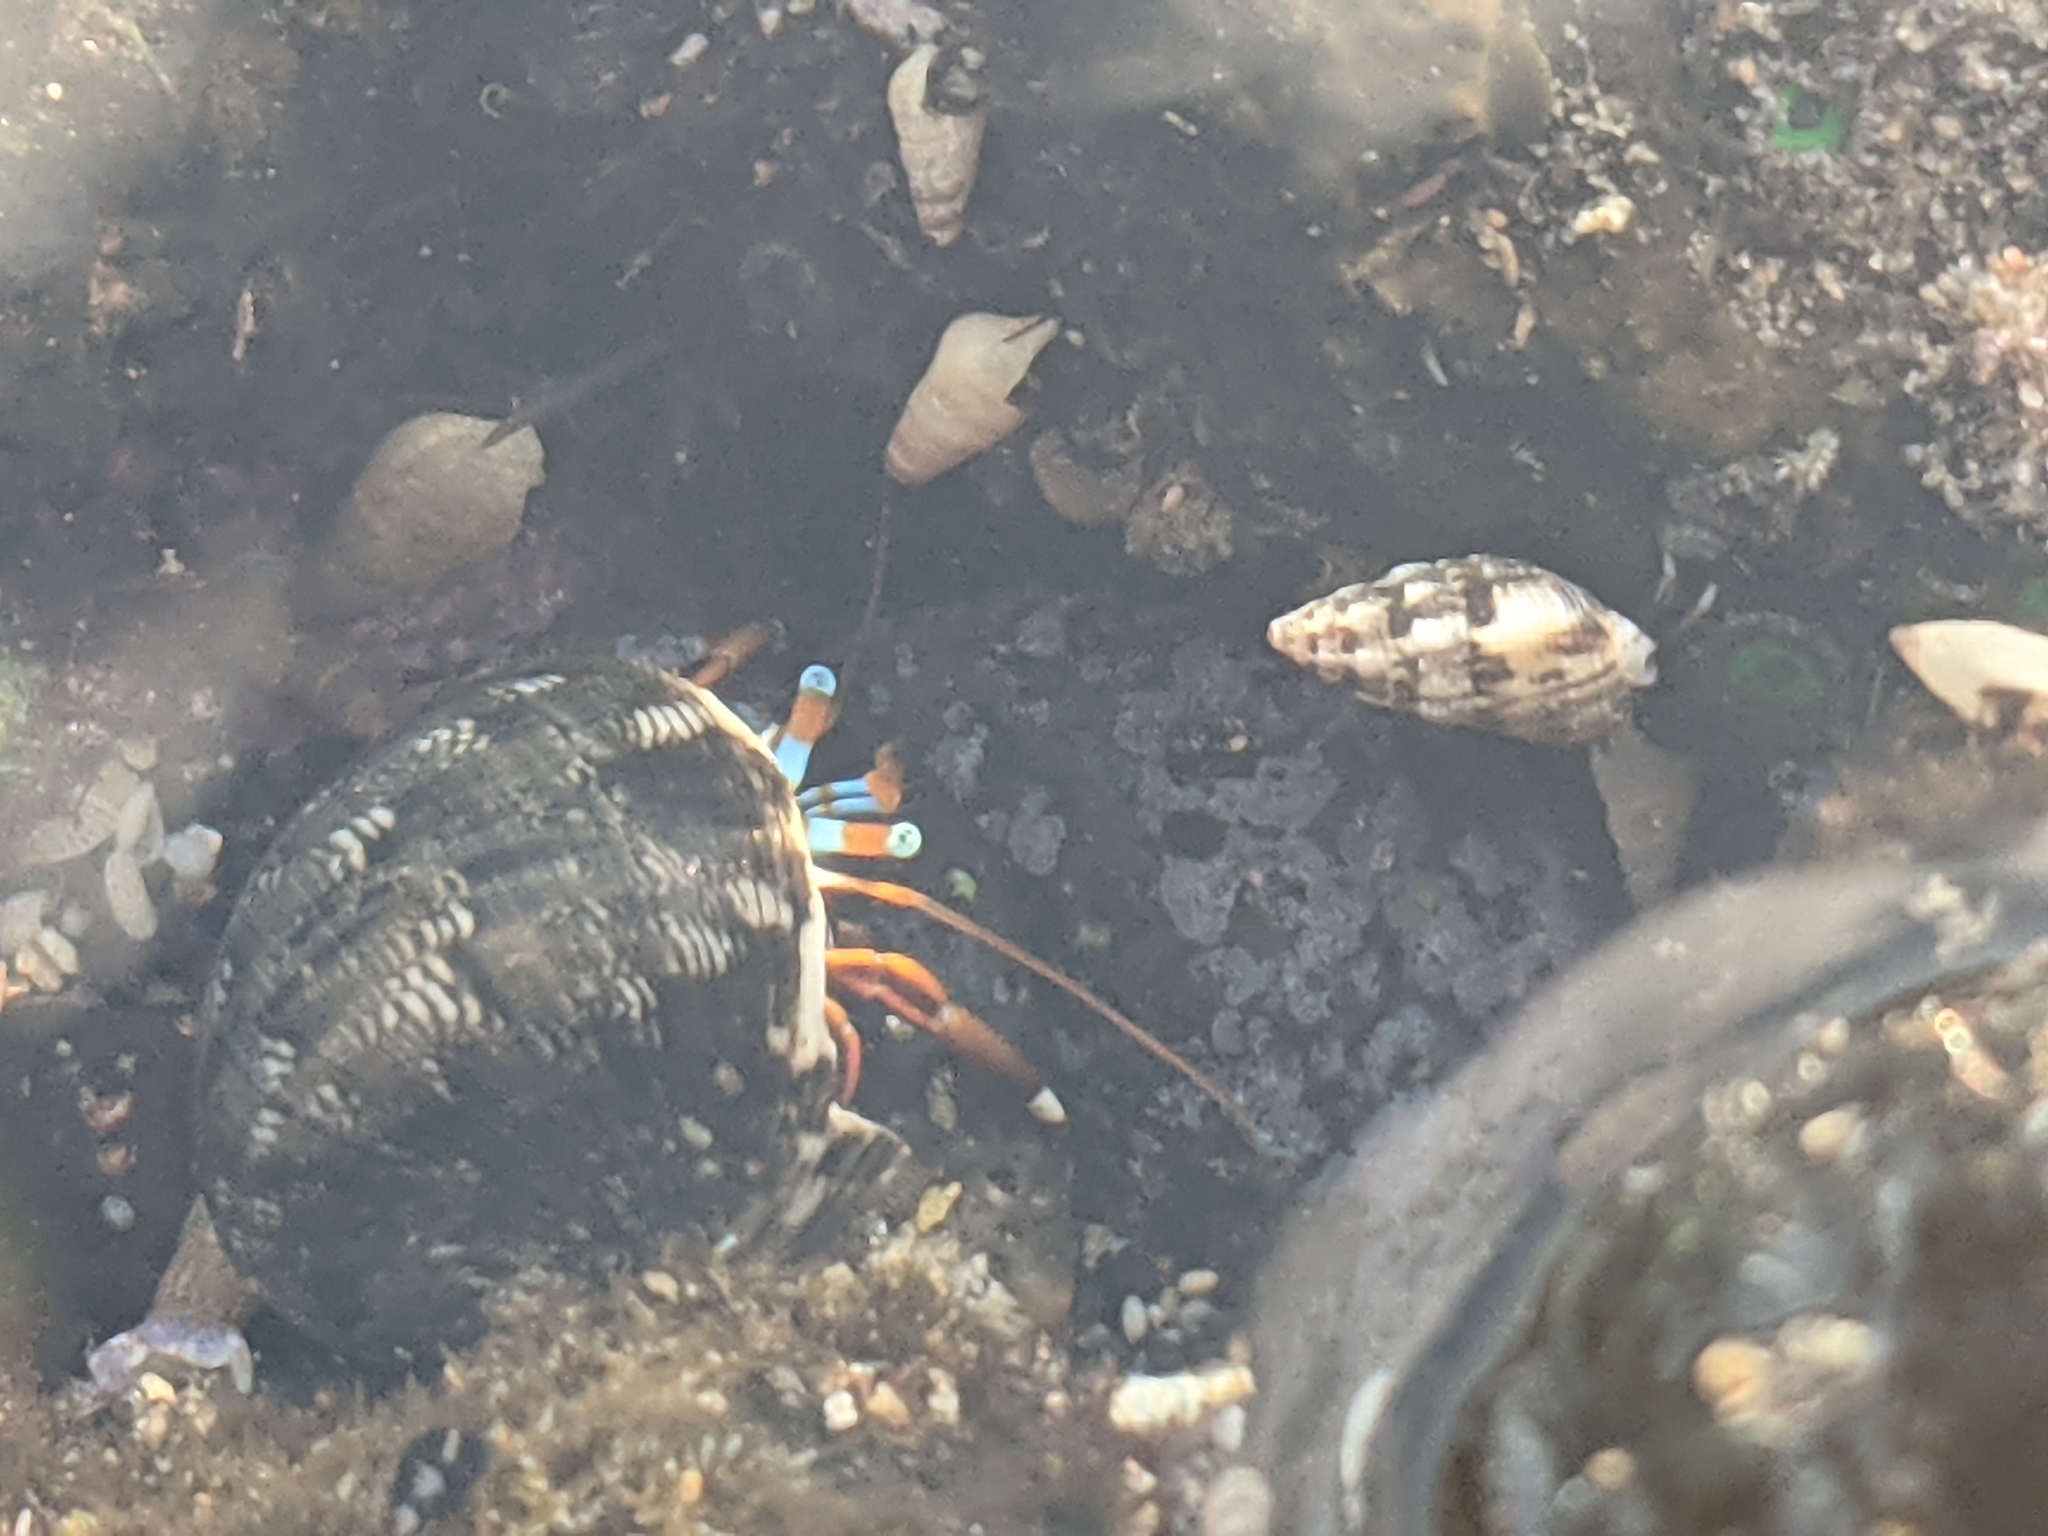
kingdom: Animalia
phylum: Arthropoda
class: Malacostraca
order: Decapoda
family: Diogenidae
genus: Calcinus
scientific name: Calcinus laevimanus
